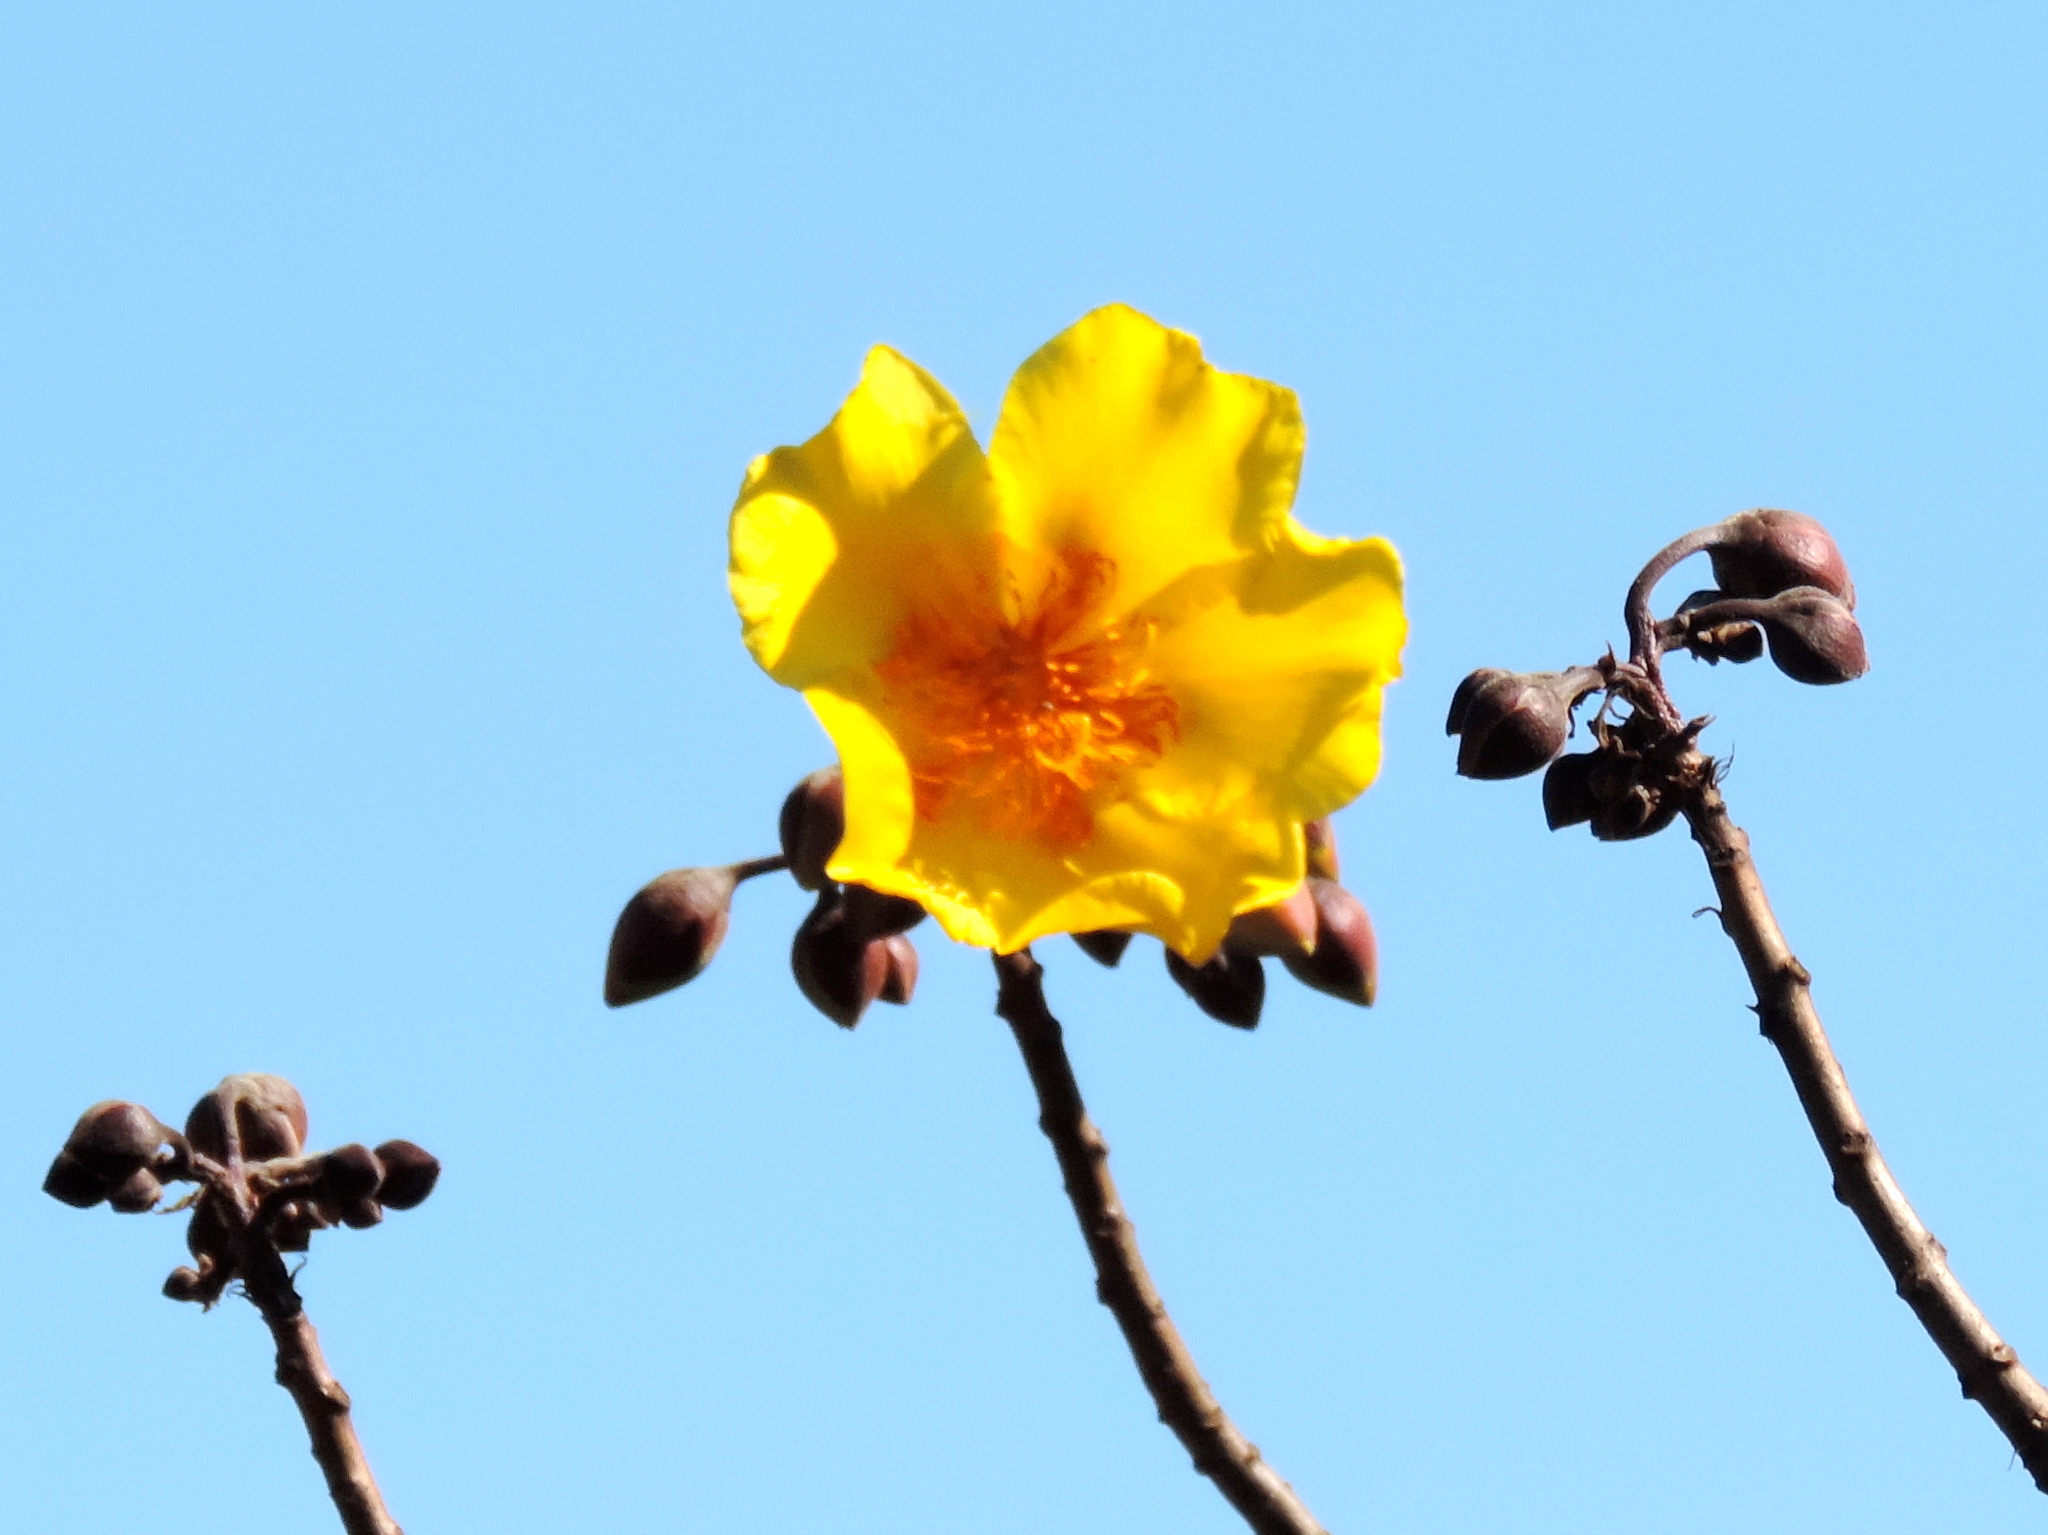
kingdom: Plantae
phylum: Tracheophyta
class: Magnoliopsida
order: Malvales
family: Cochlospermaceae
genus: Cochlospermum
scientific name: Cochlospermum vitifolium
